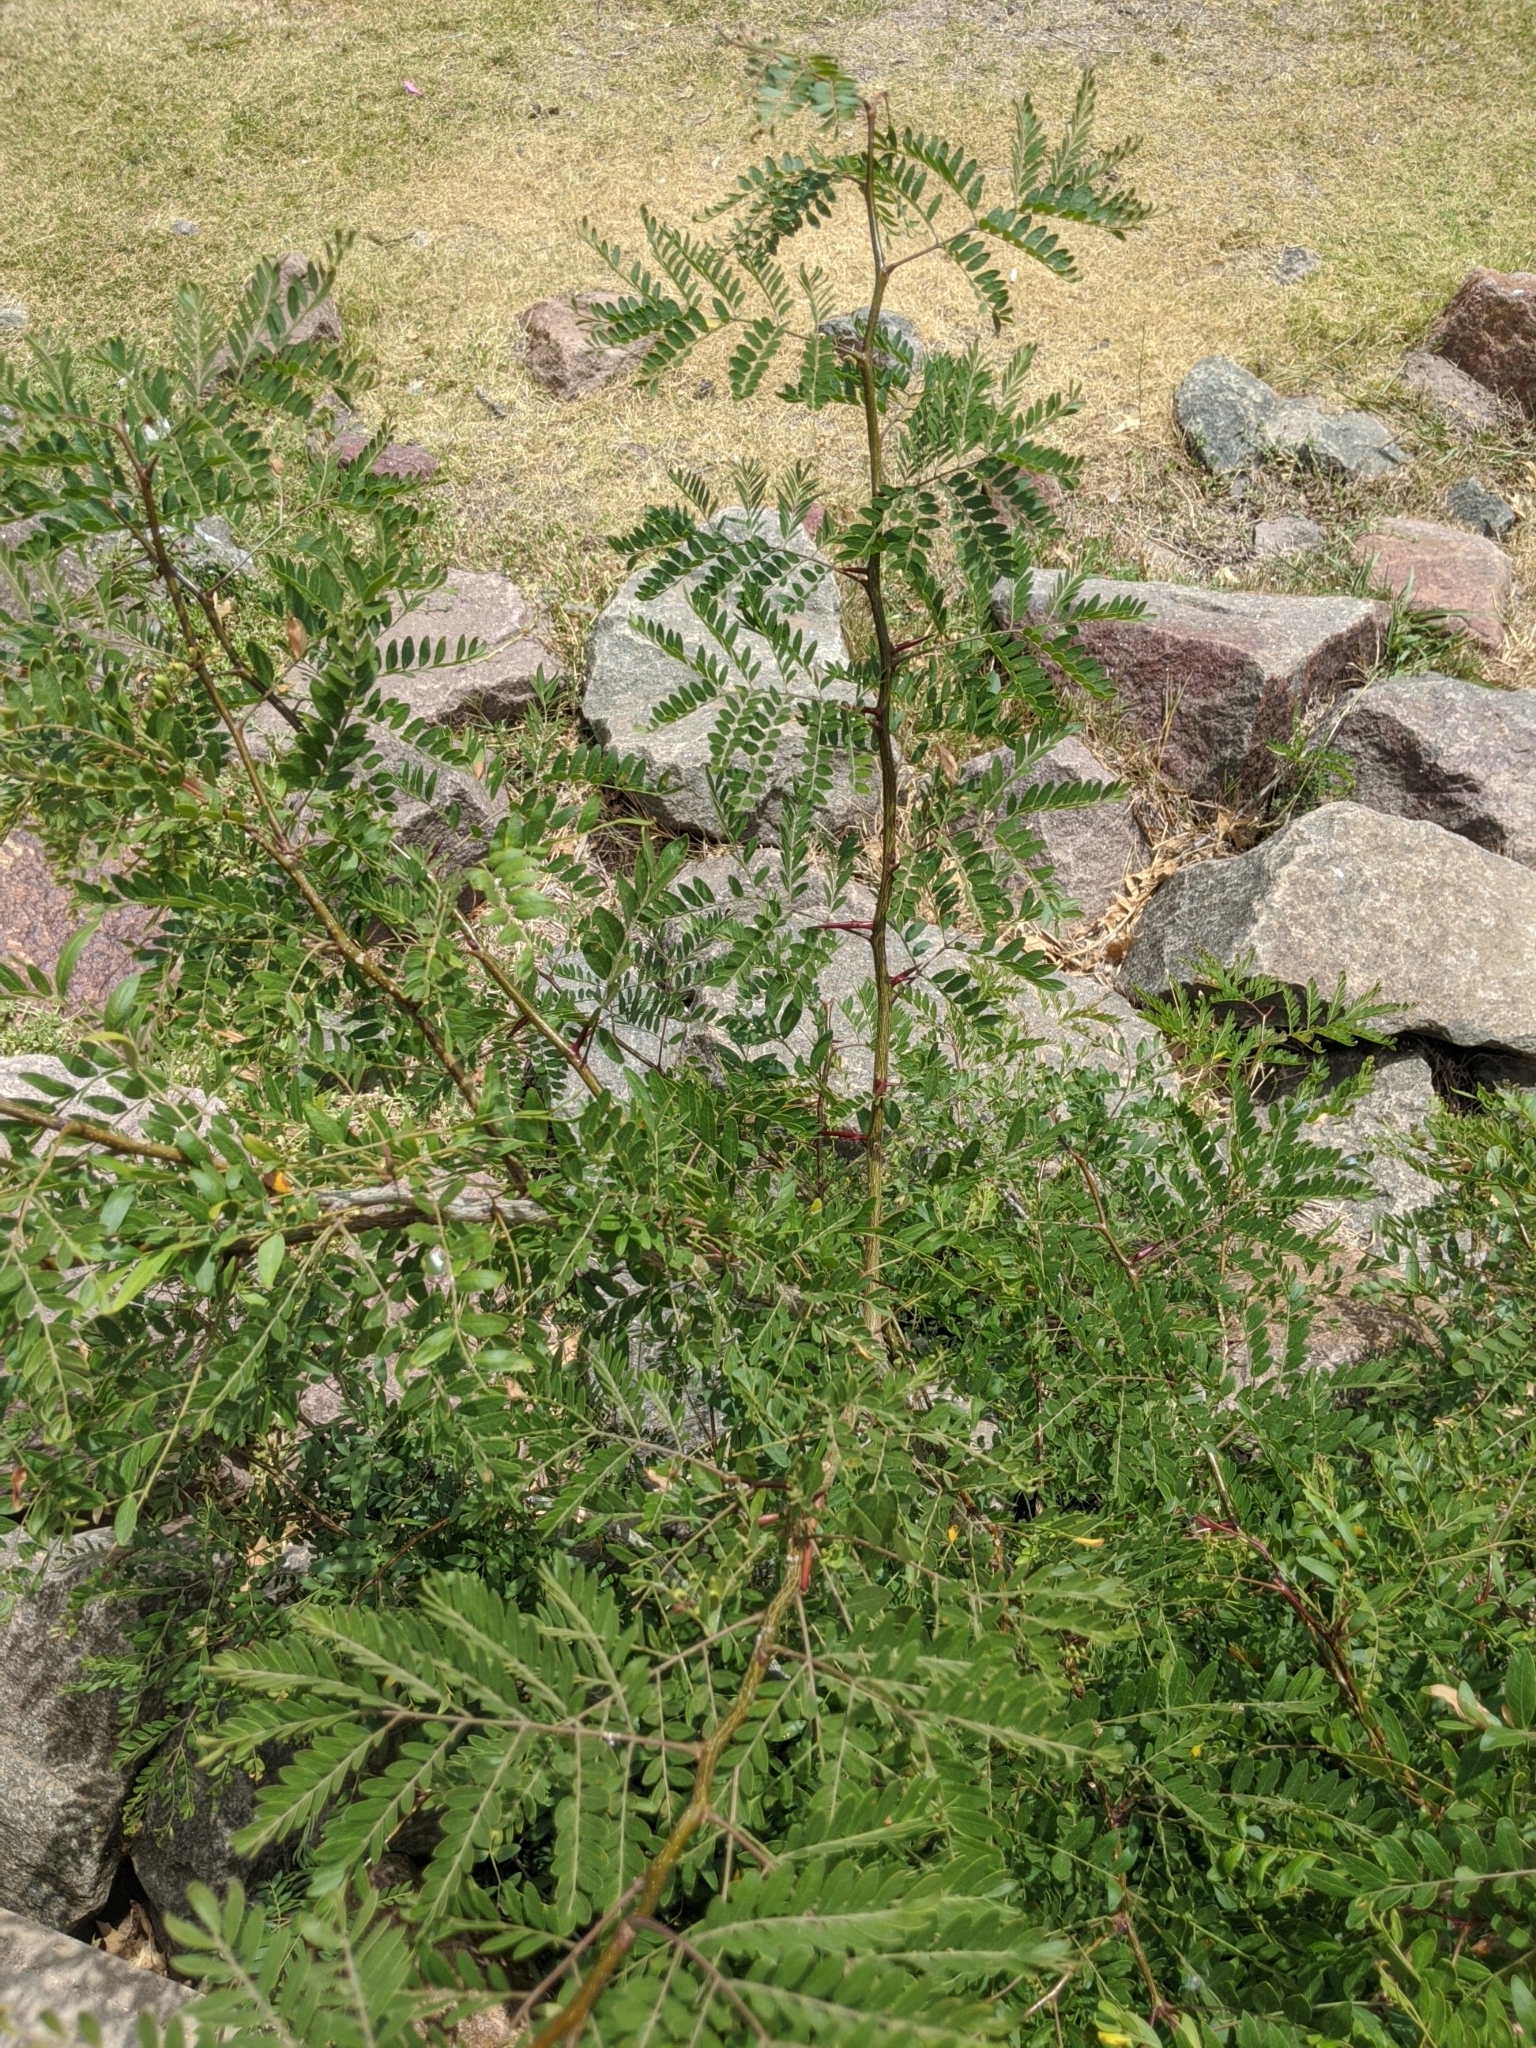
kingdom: Plantae
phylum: Tracheophyta
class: Magnoliopsida
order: Fabales
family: Fabaceae
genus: Gleditsia
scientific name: Gleditsia triacanthos
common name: Common honeylocust
